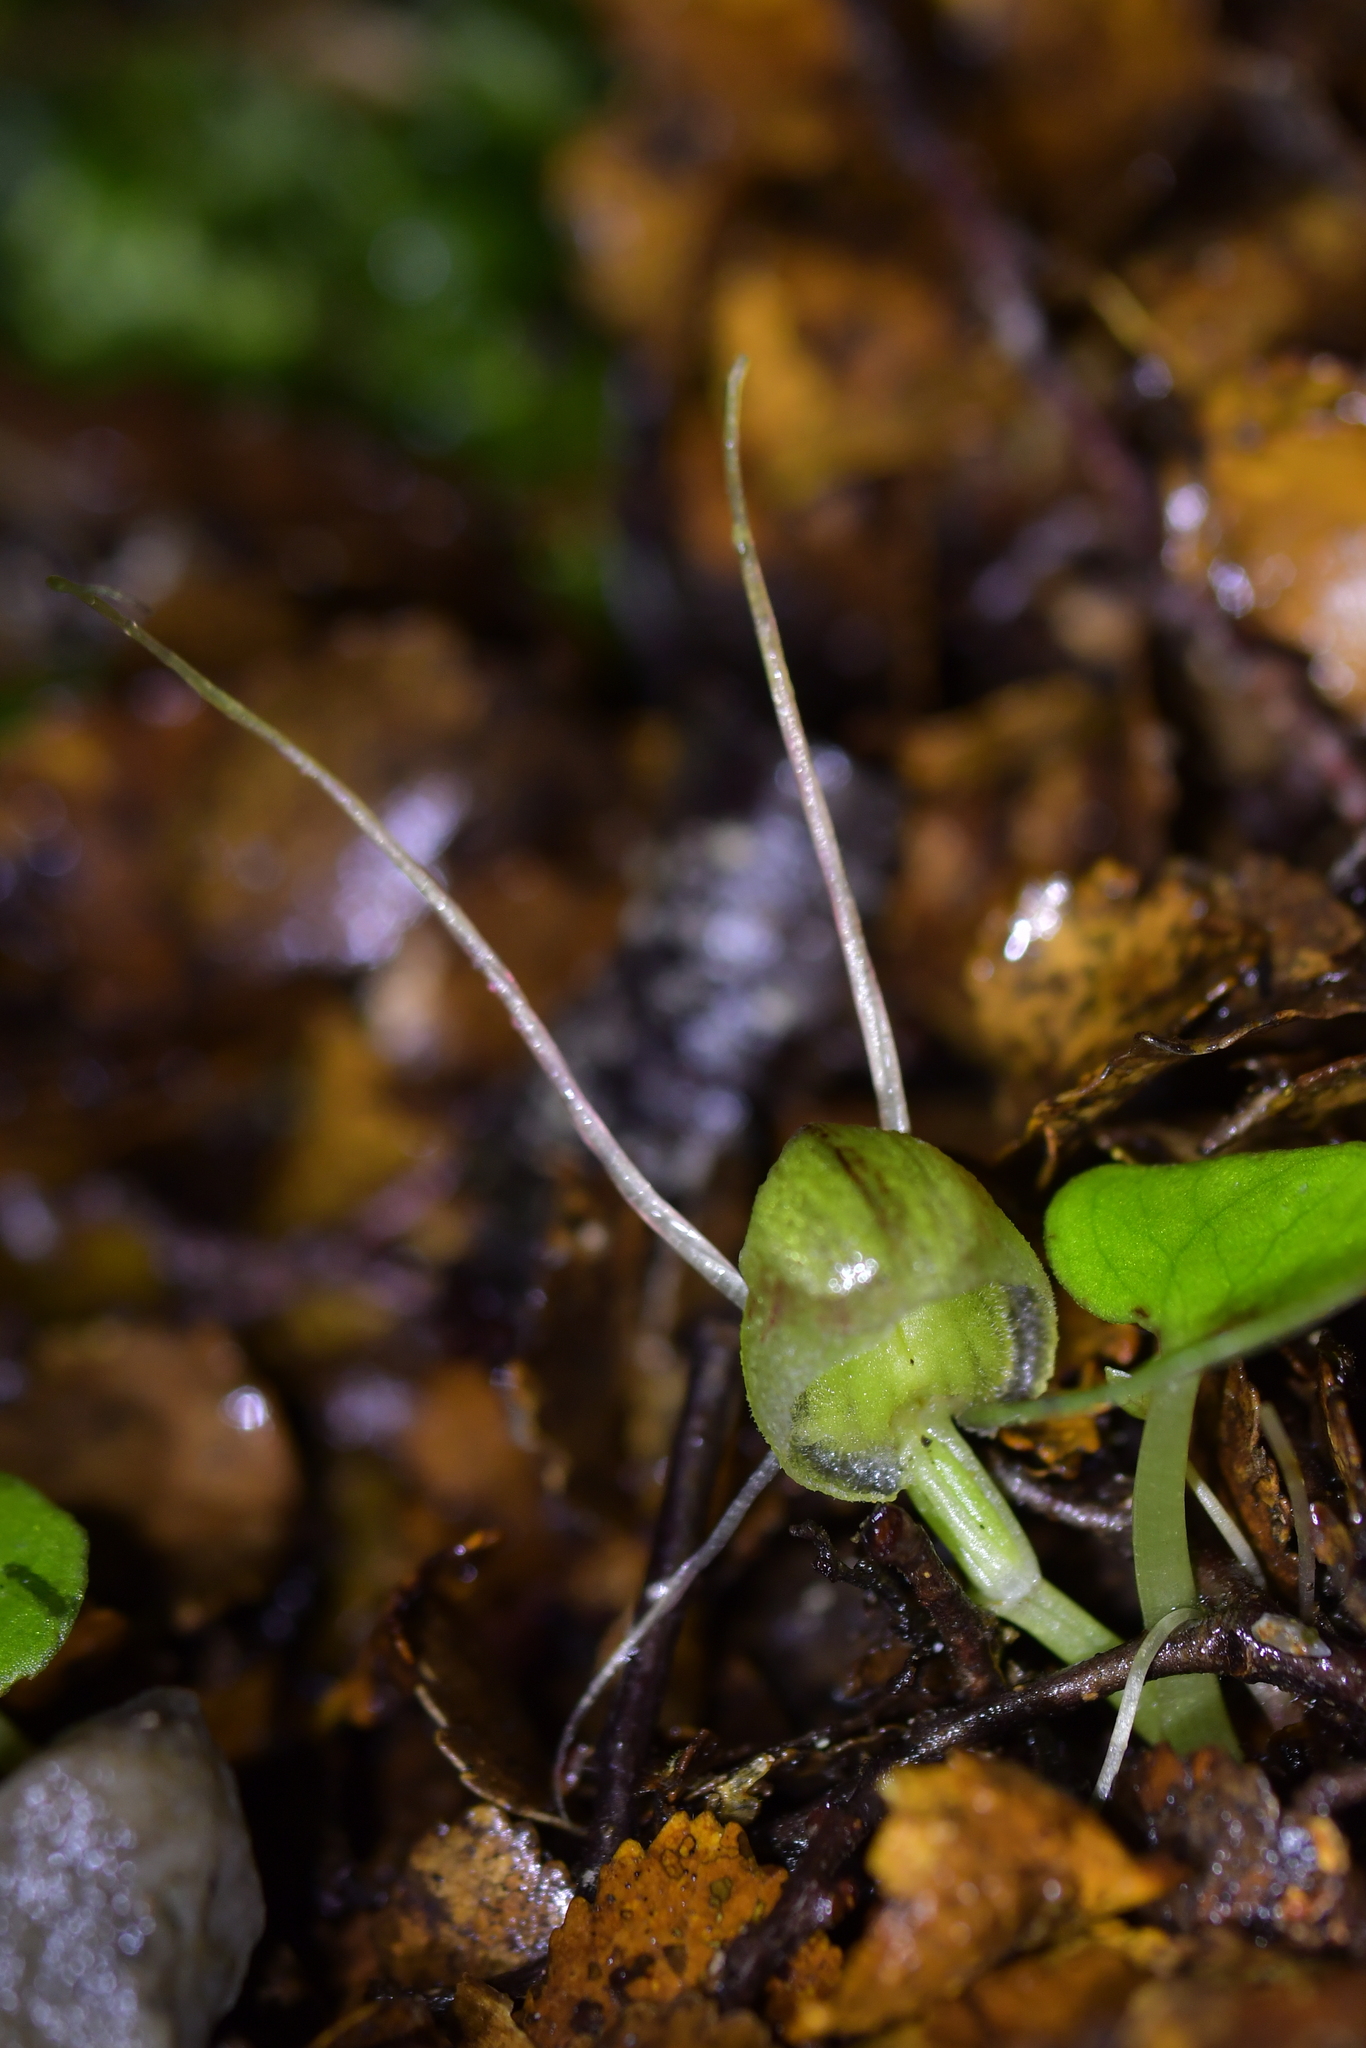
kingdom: Plantae
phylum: Tracheophyta
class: Liliopsida
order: Asparagales
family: Orchidaceae
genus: Corybas
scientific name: Corybas walliae
